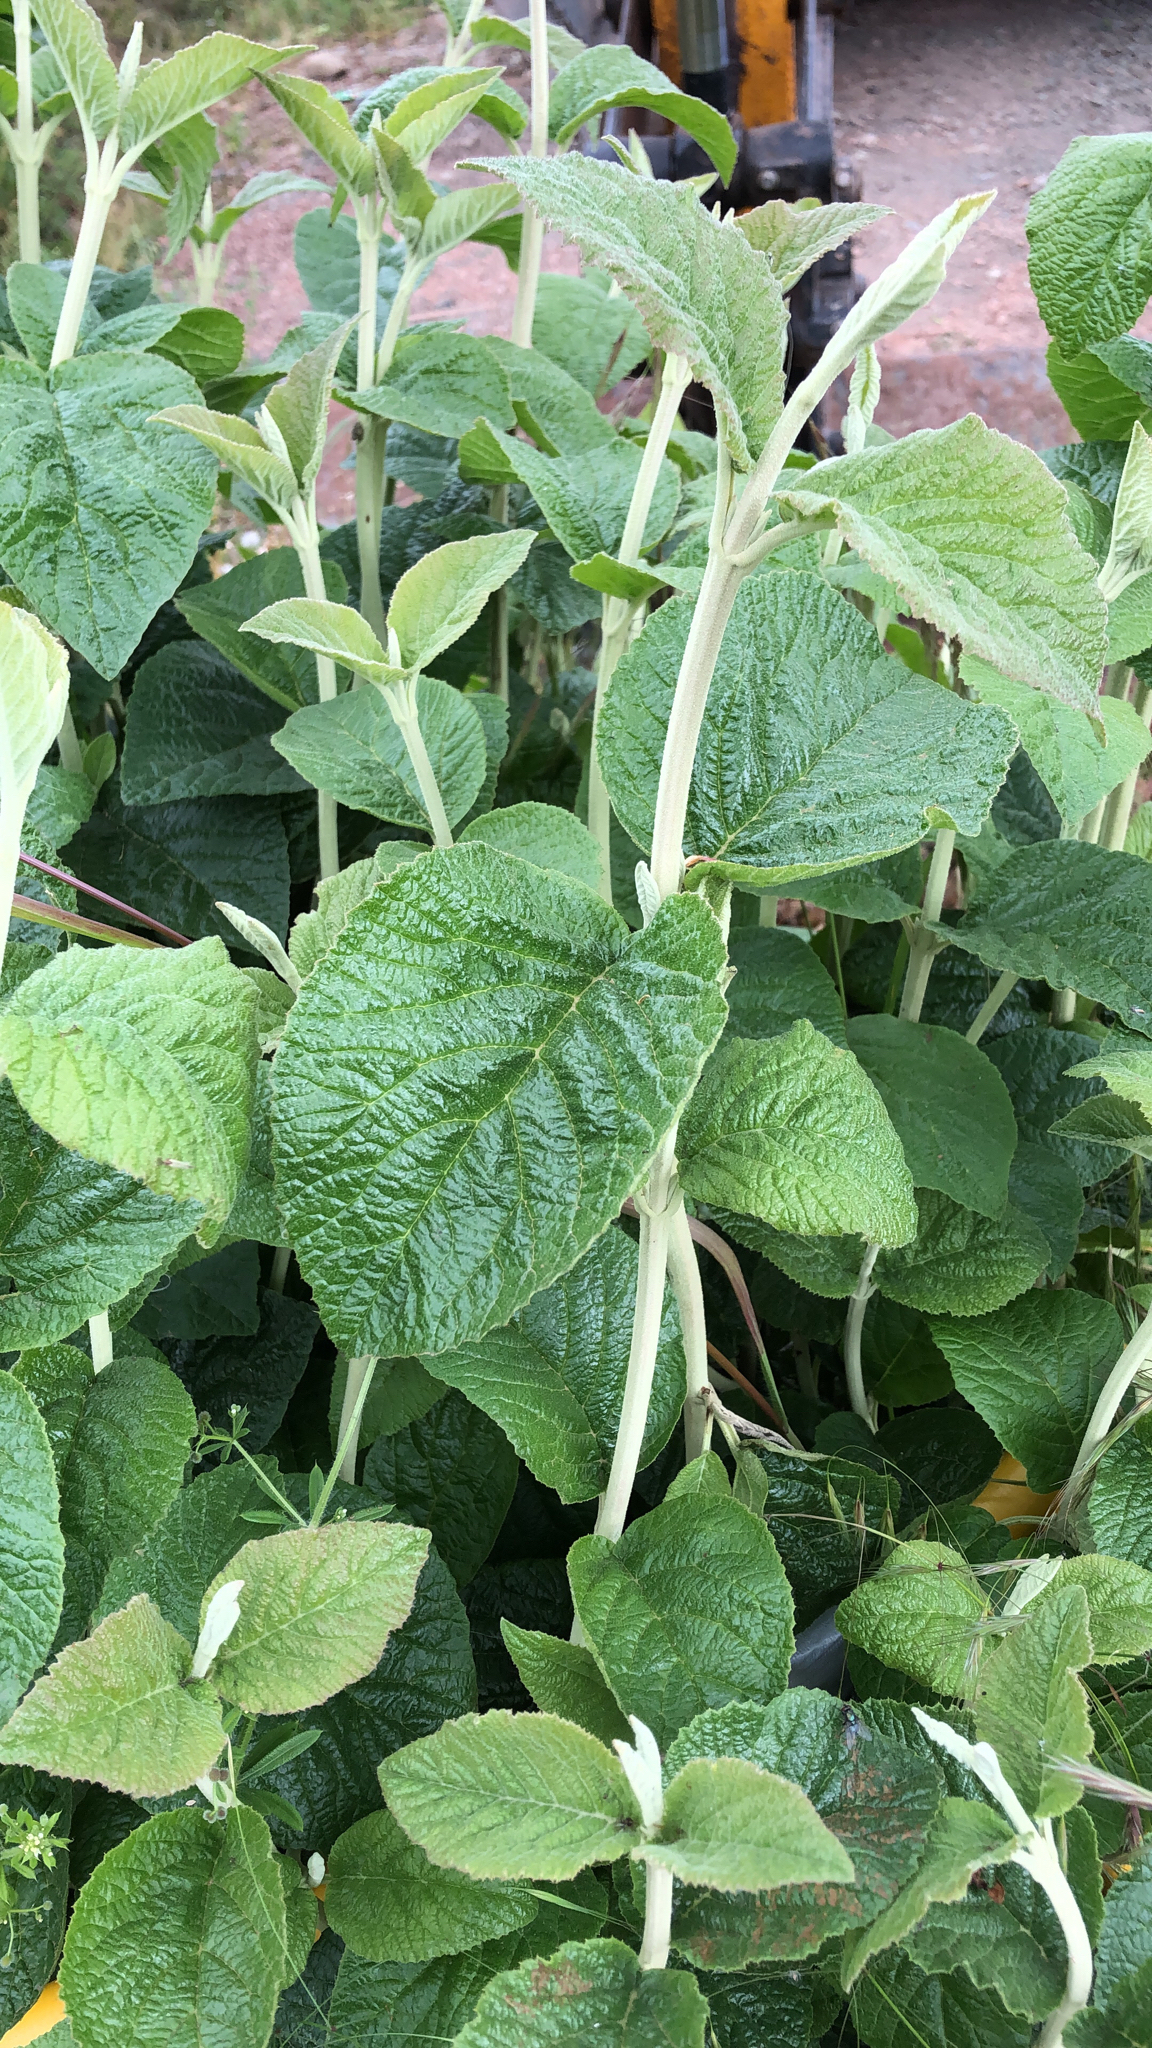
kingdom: Plantae
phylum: Tracheophyta
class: Magnoliopsida
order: Dipsacales
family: Viburnaceae
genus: Viburnum
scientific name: Viburnum lantana
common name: Wayfaring tree
